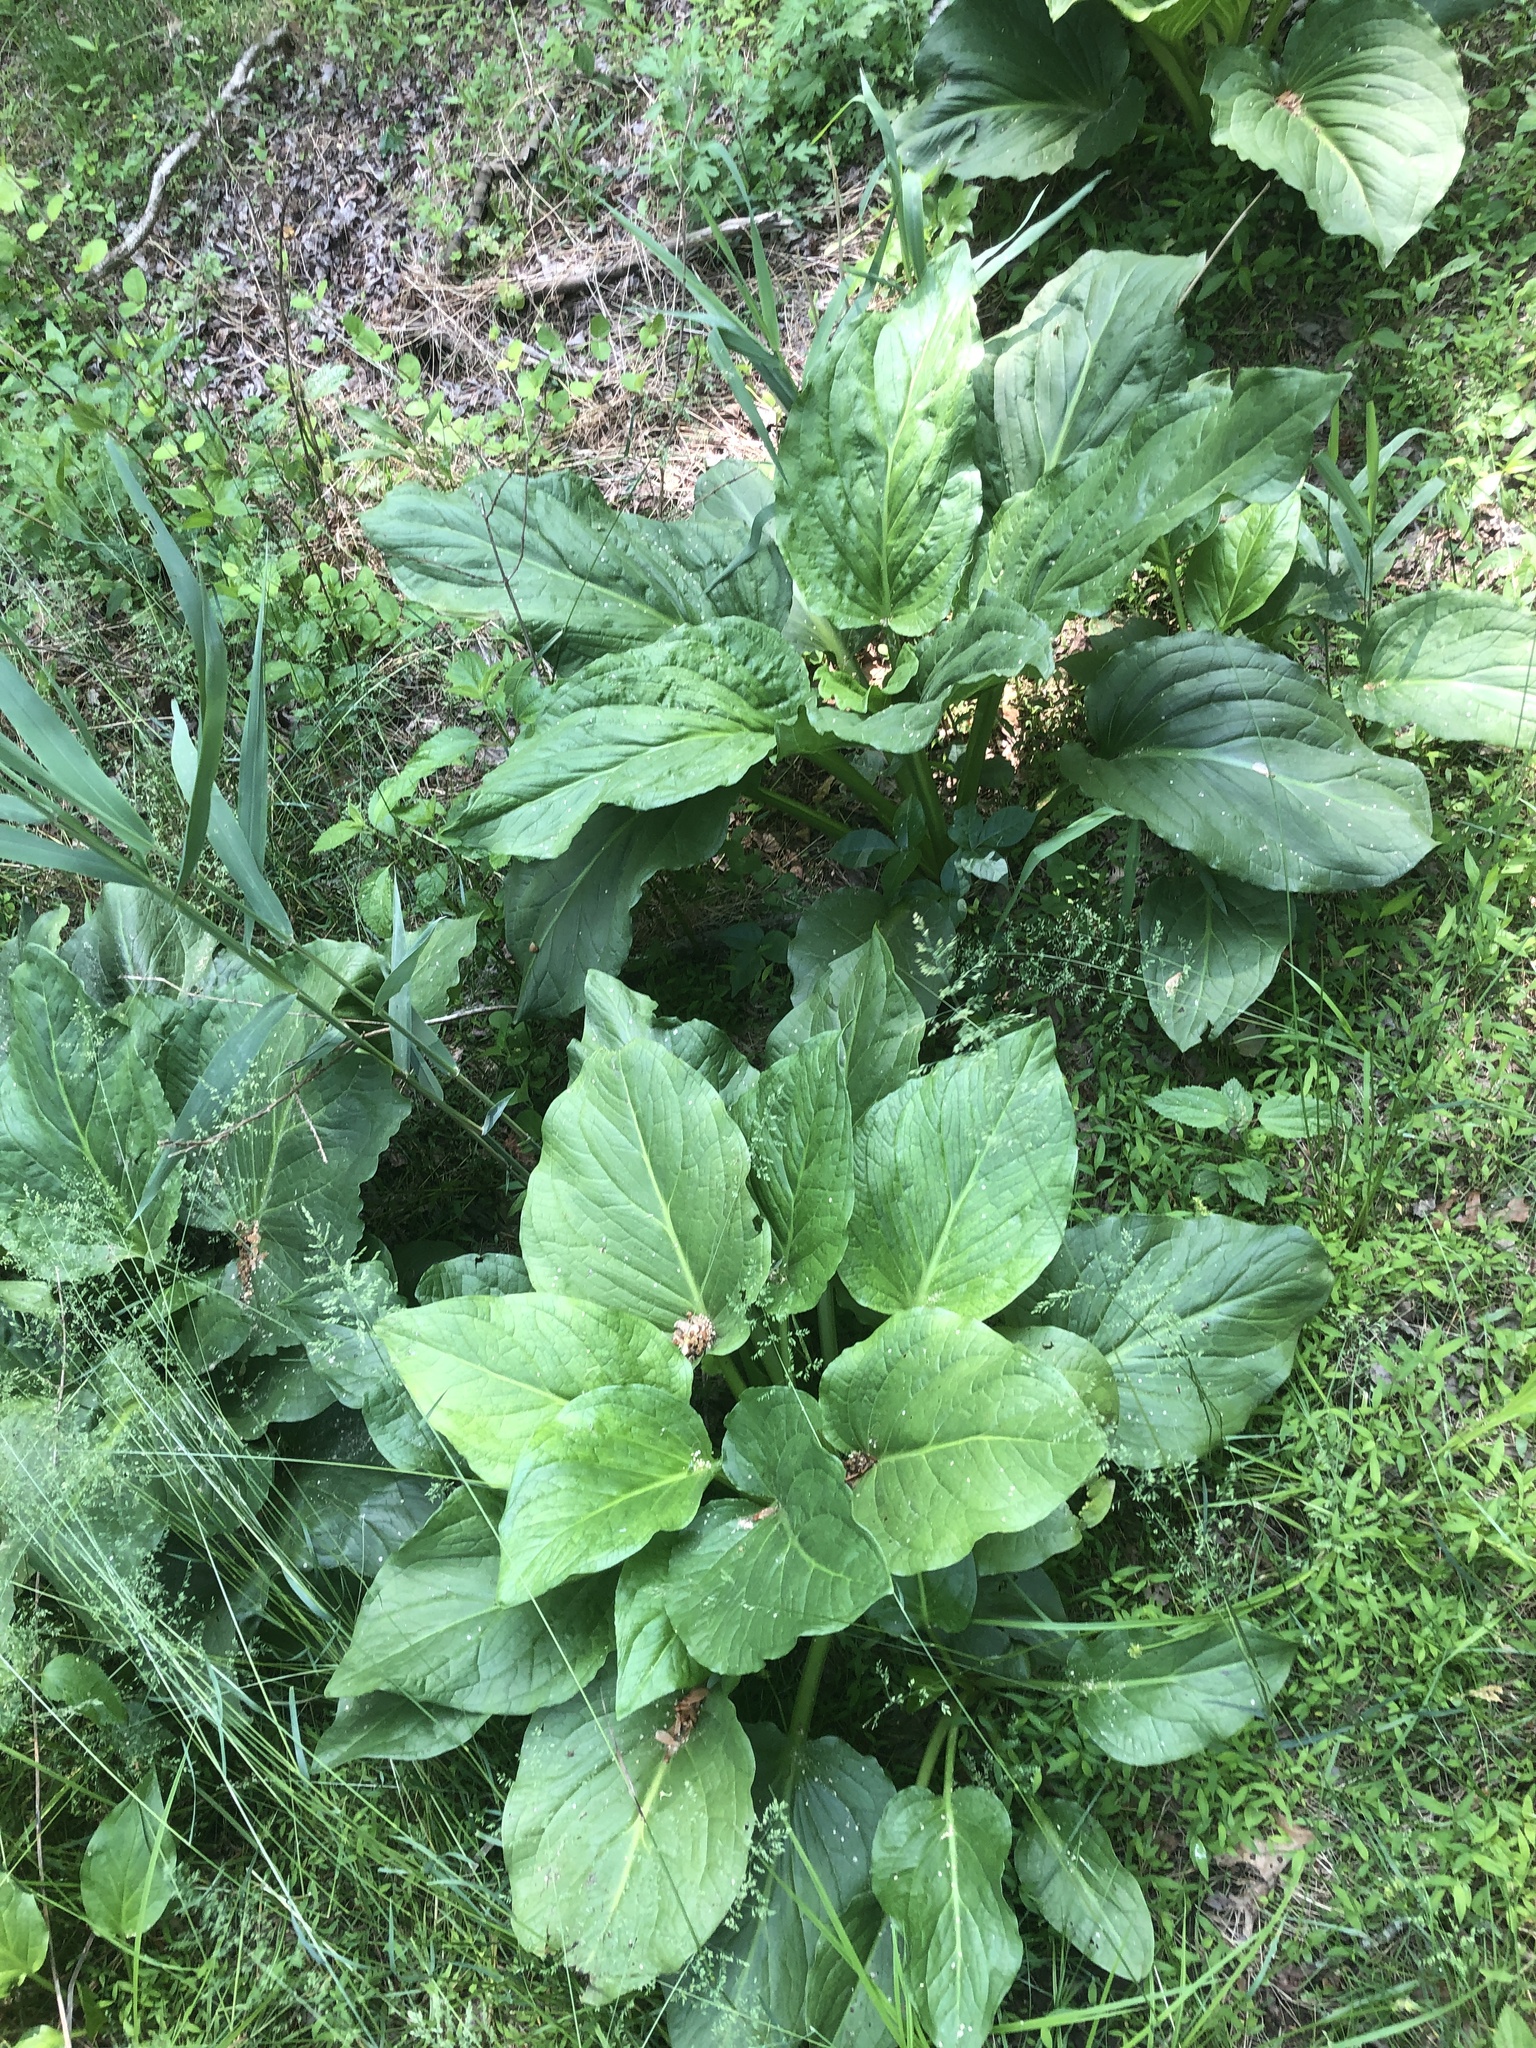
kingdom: Plantae
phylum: Tracheophyta
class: Liliopsida
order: Alismatales
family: Araceae
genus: Symplocarpus
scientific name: Symplocarpus foetidus
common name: Eastern skunk cabbage
